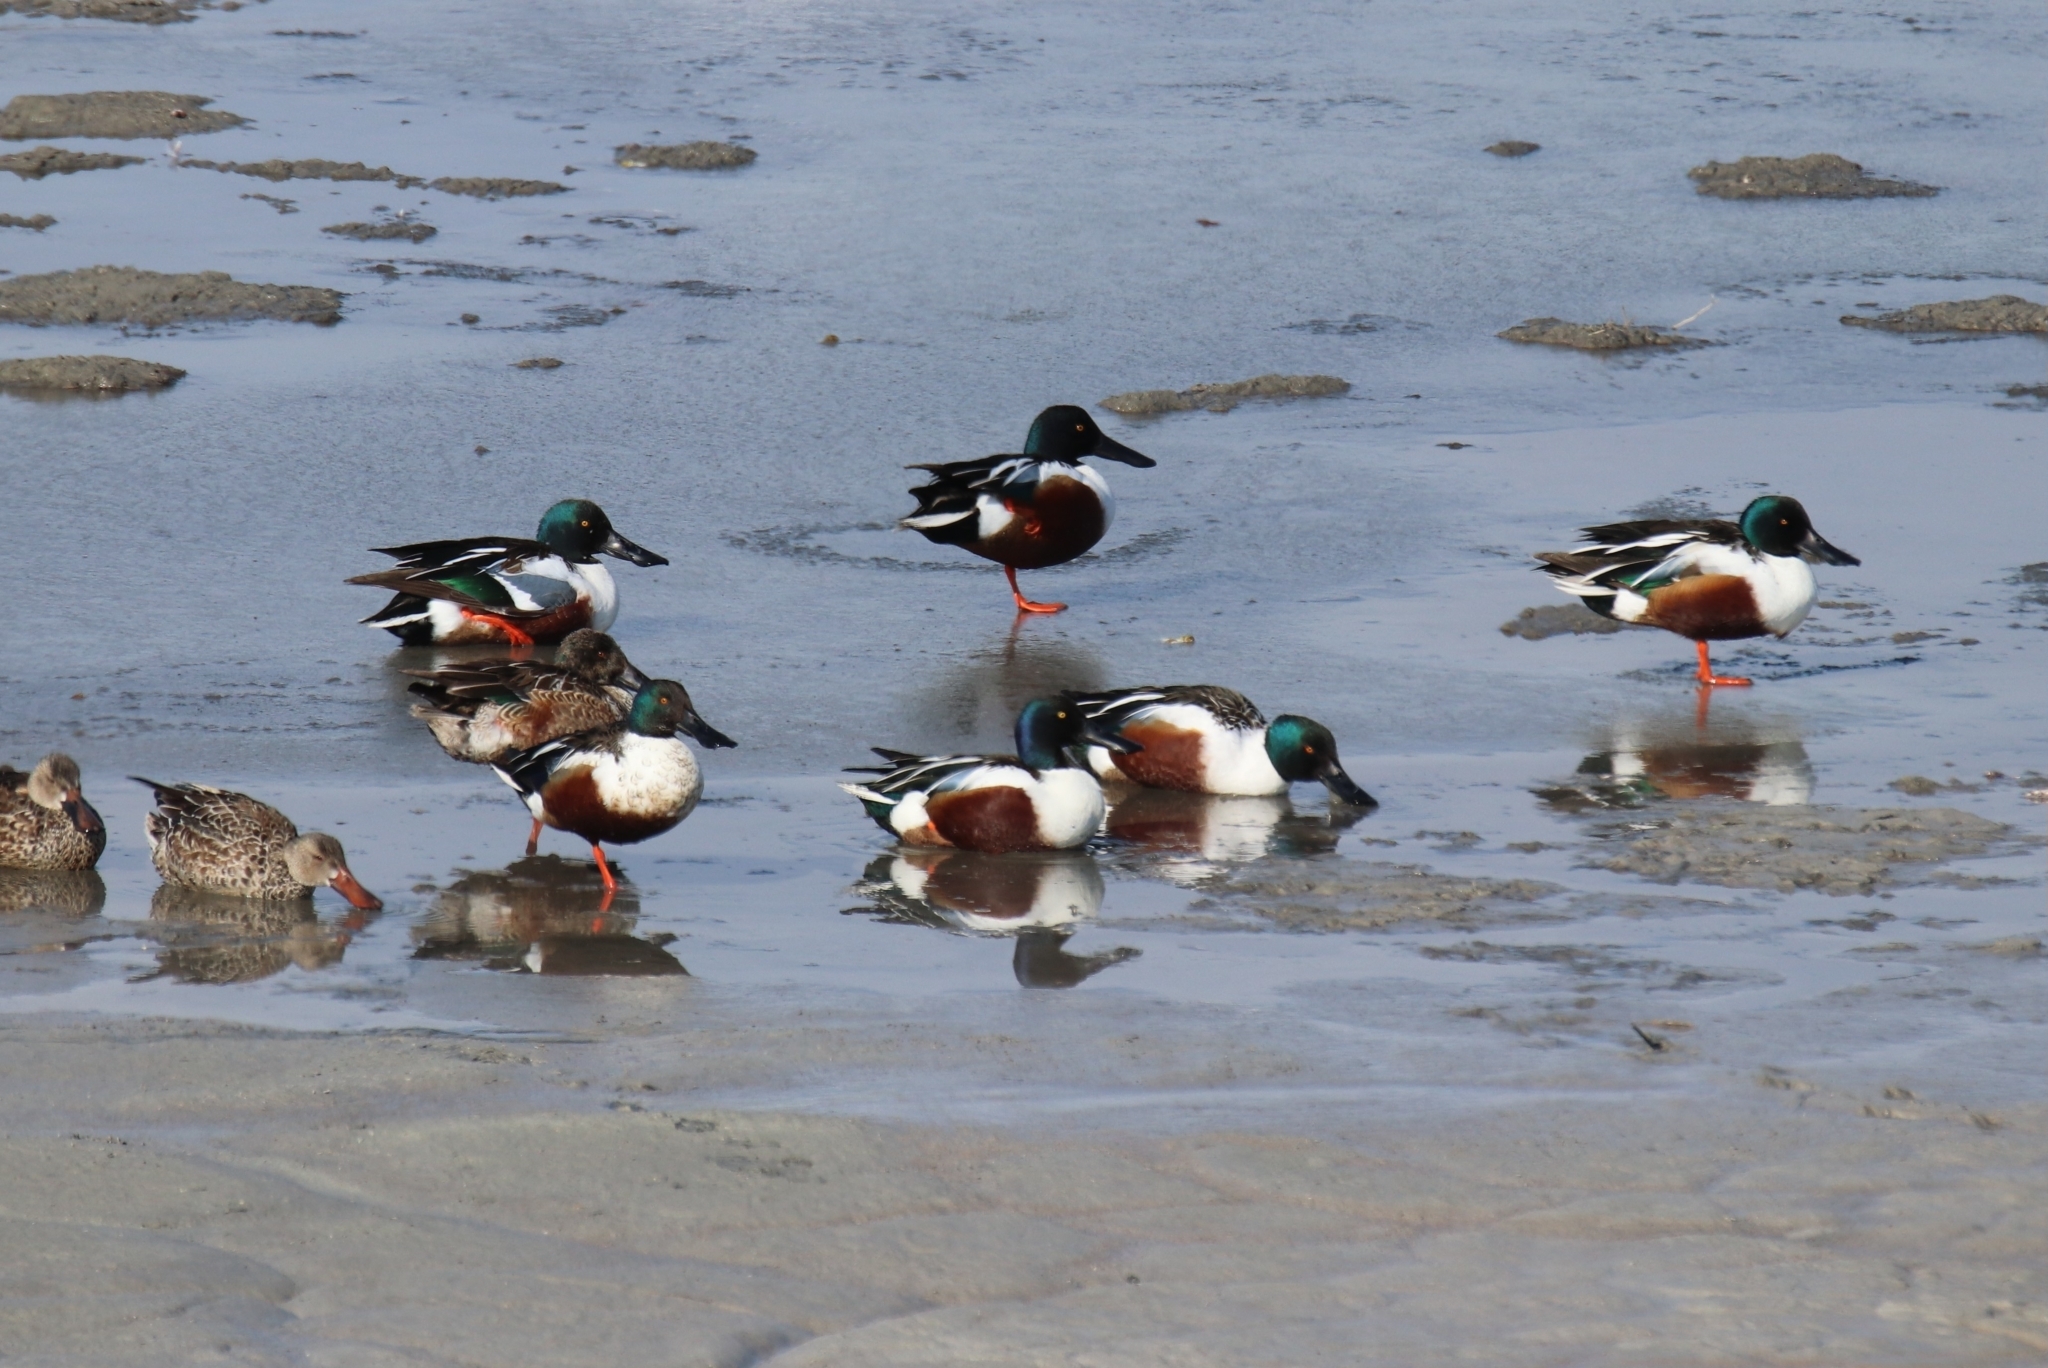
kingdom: Animalia
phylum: Chordata
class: Aves
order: Anseriformes
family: Anatidae
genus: Spatula
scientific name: Spatula clypeata
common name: Northern shoveler
